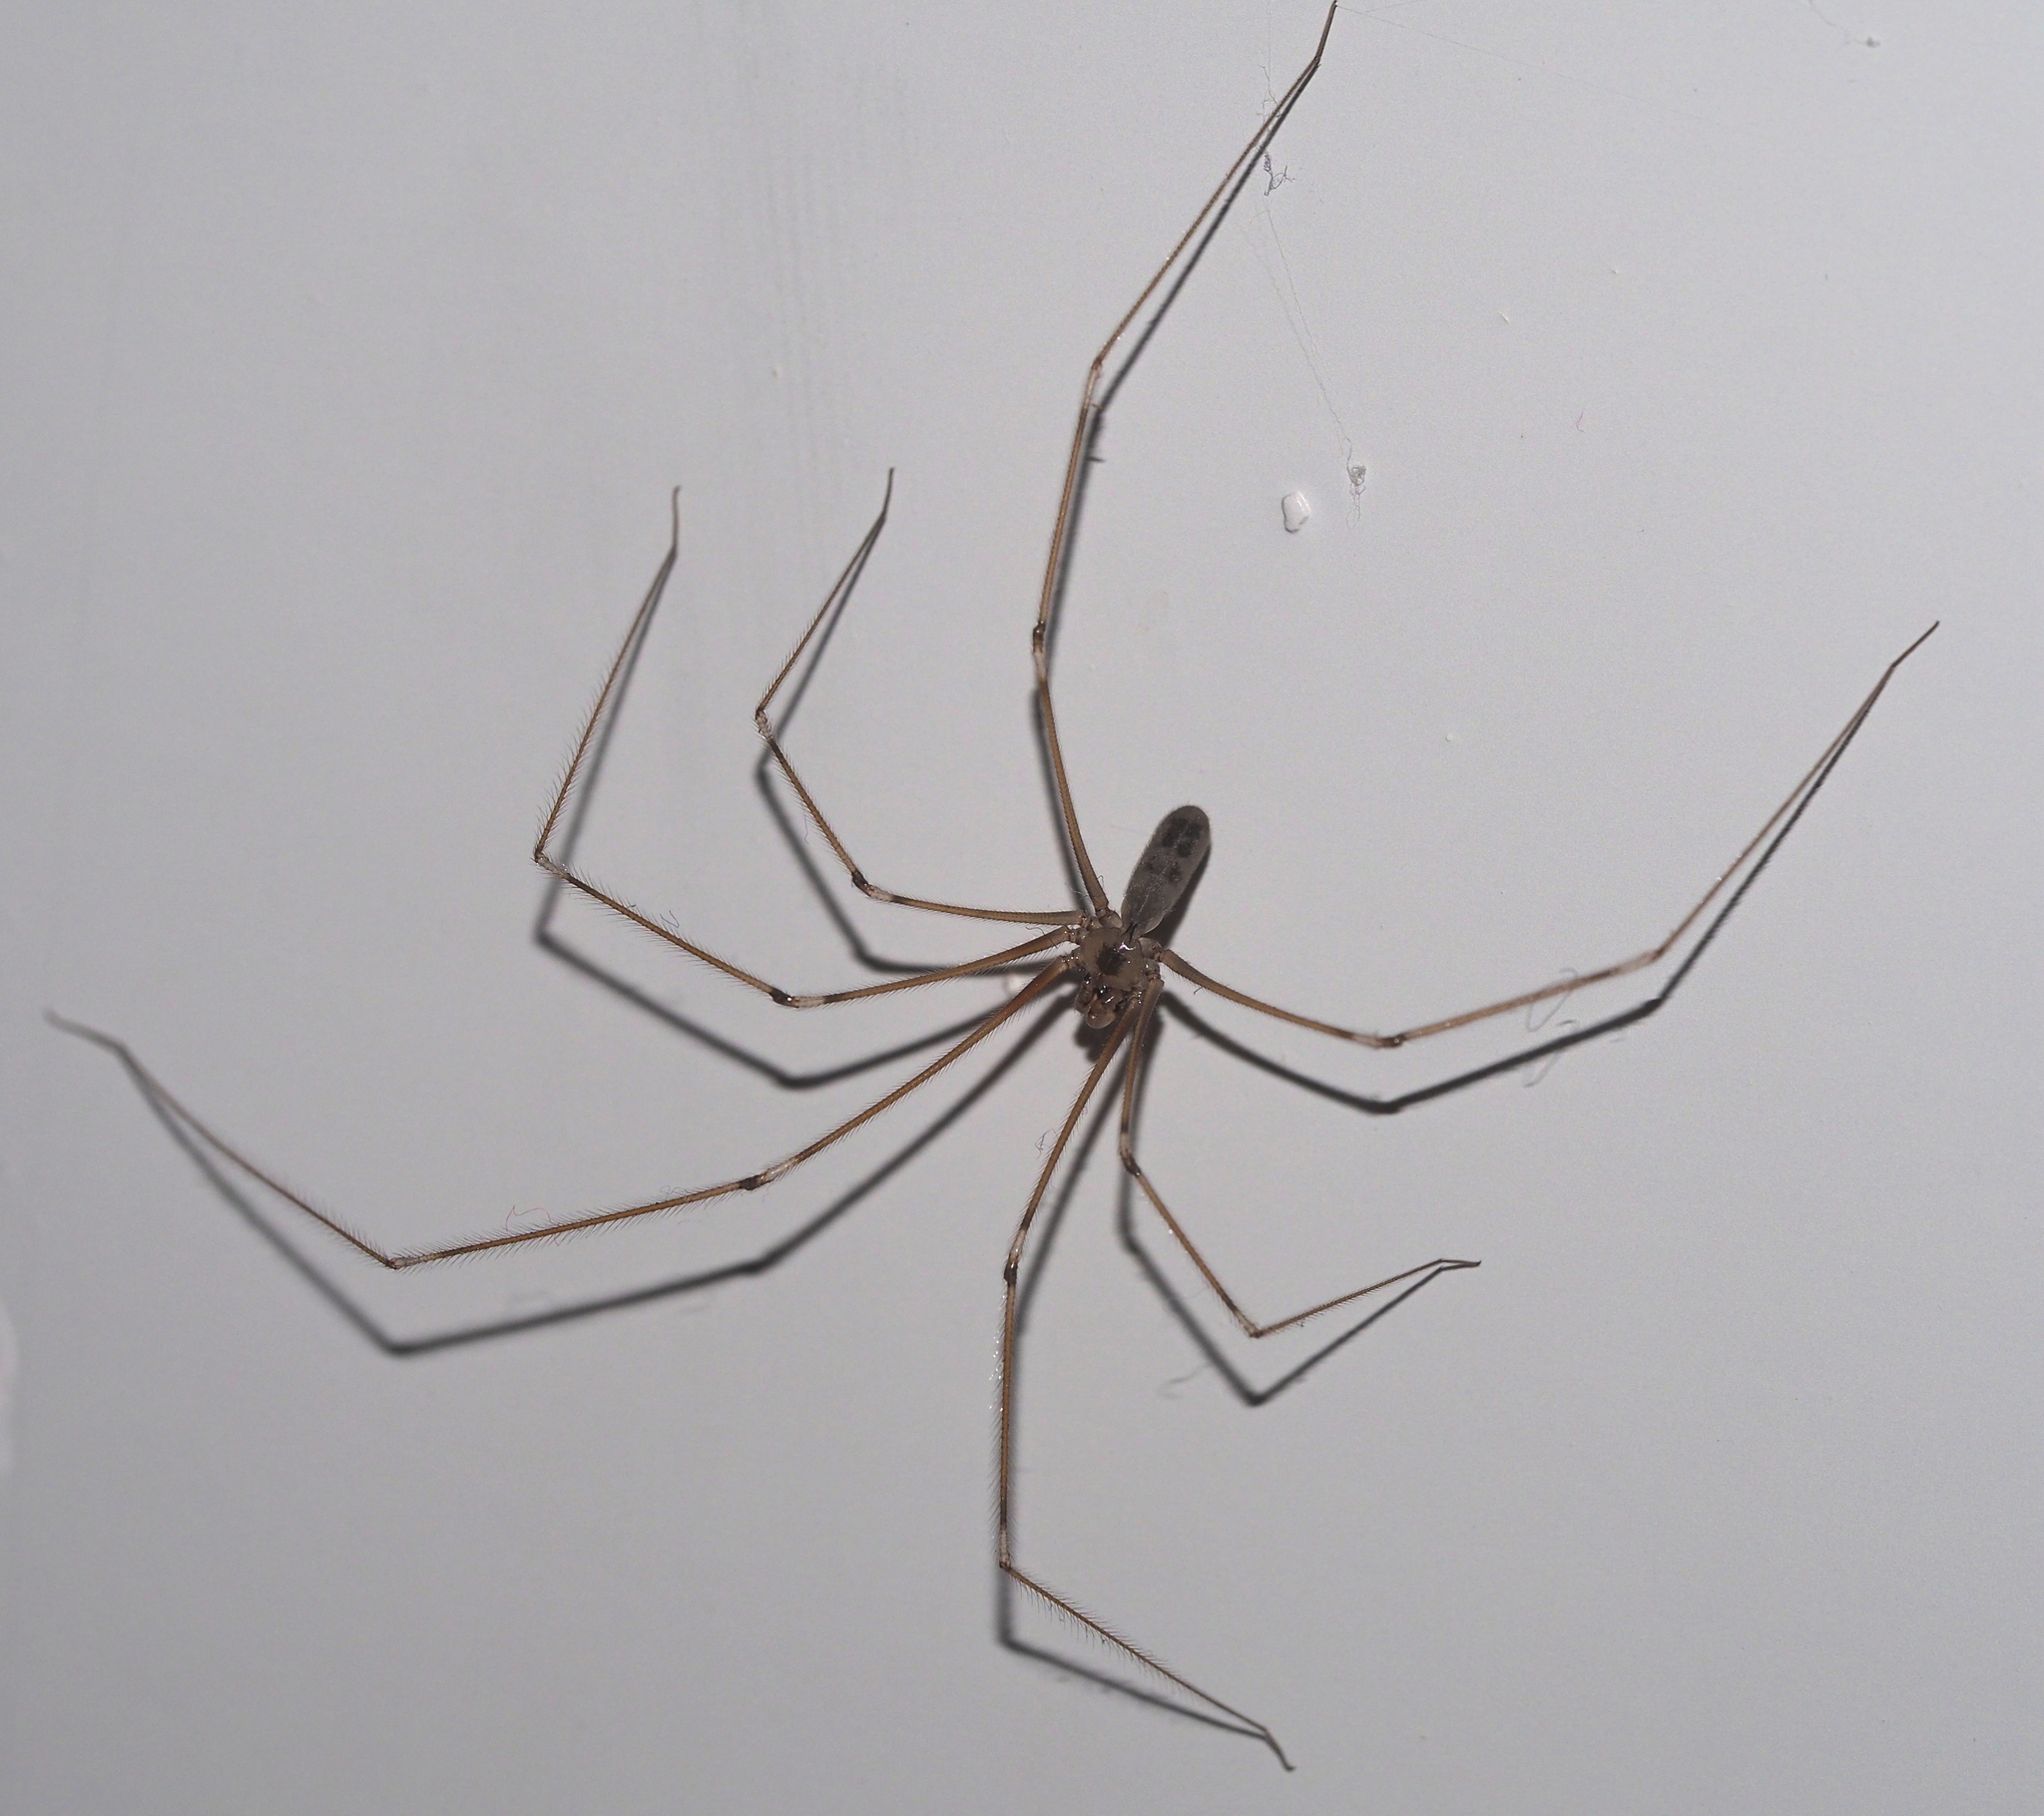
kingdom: Animalia
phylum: Arthropoda
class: Arachnida
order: Araneae
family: Pholcidae
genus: Pholcus
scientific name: Pholcus phalangioides
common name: Longbodied cellar spider
